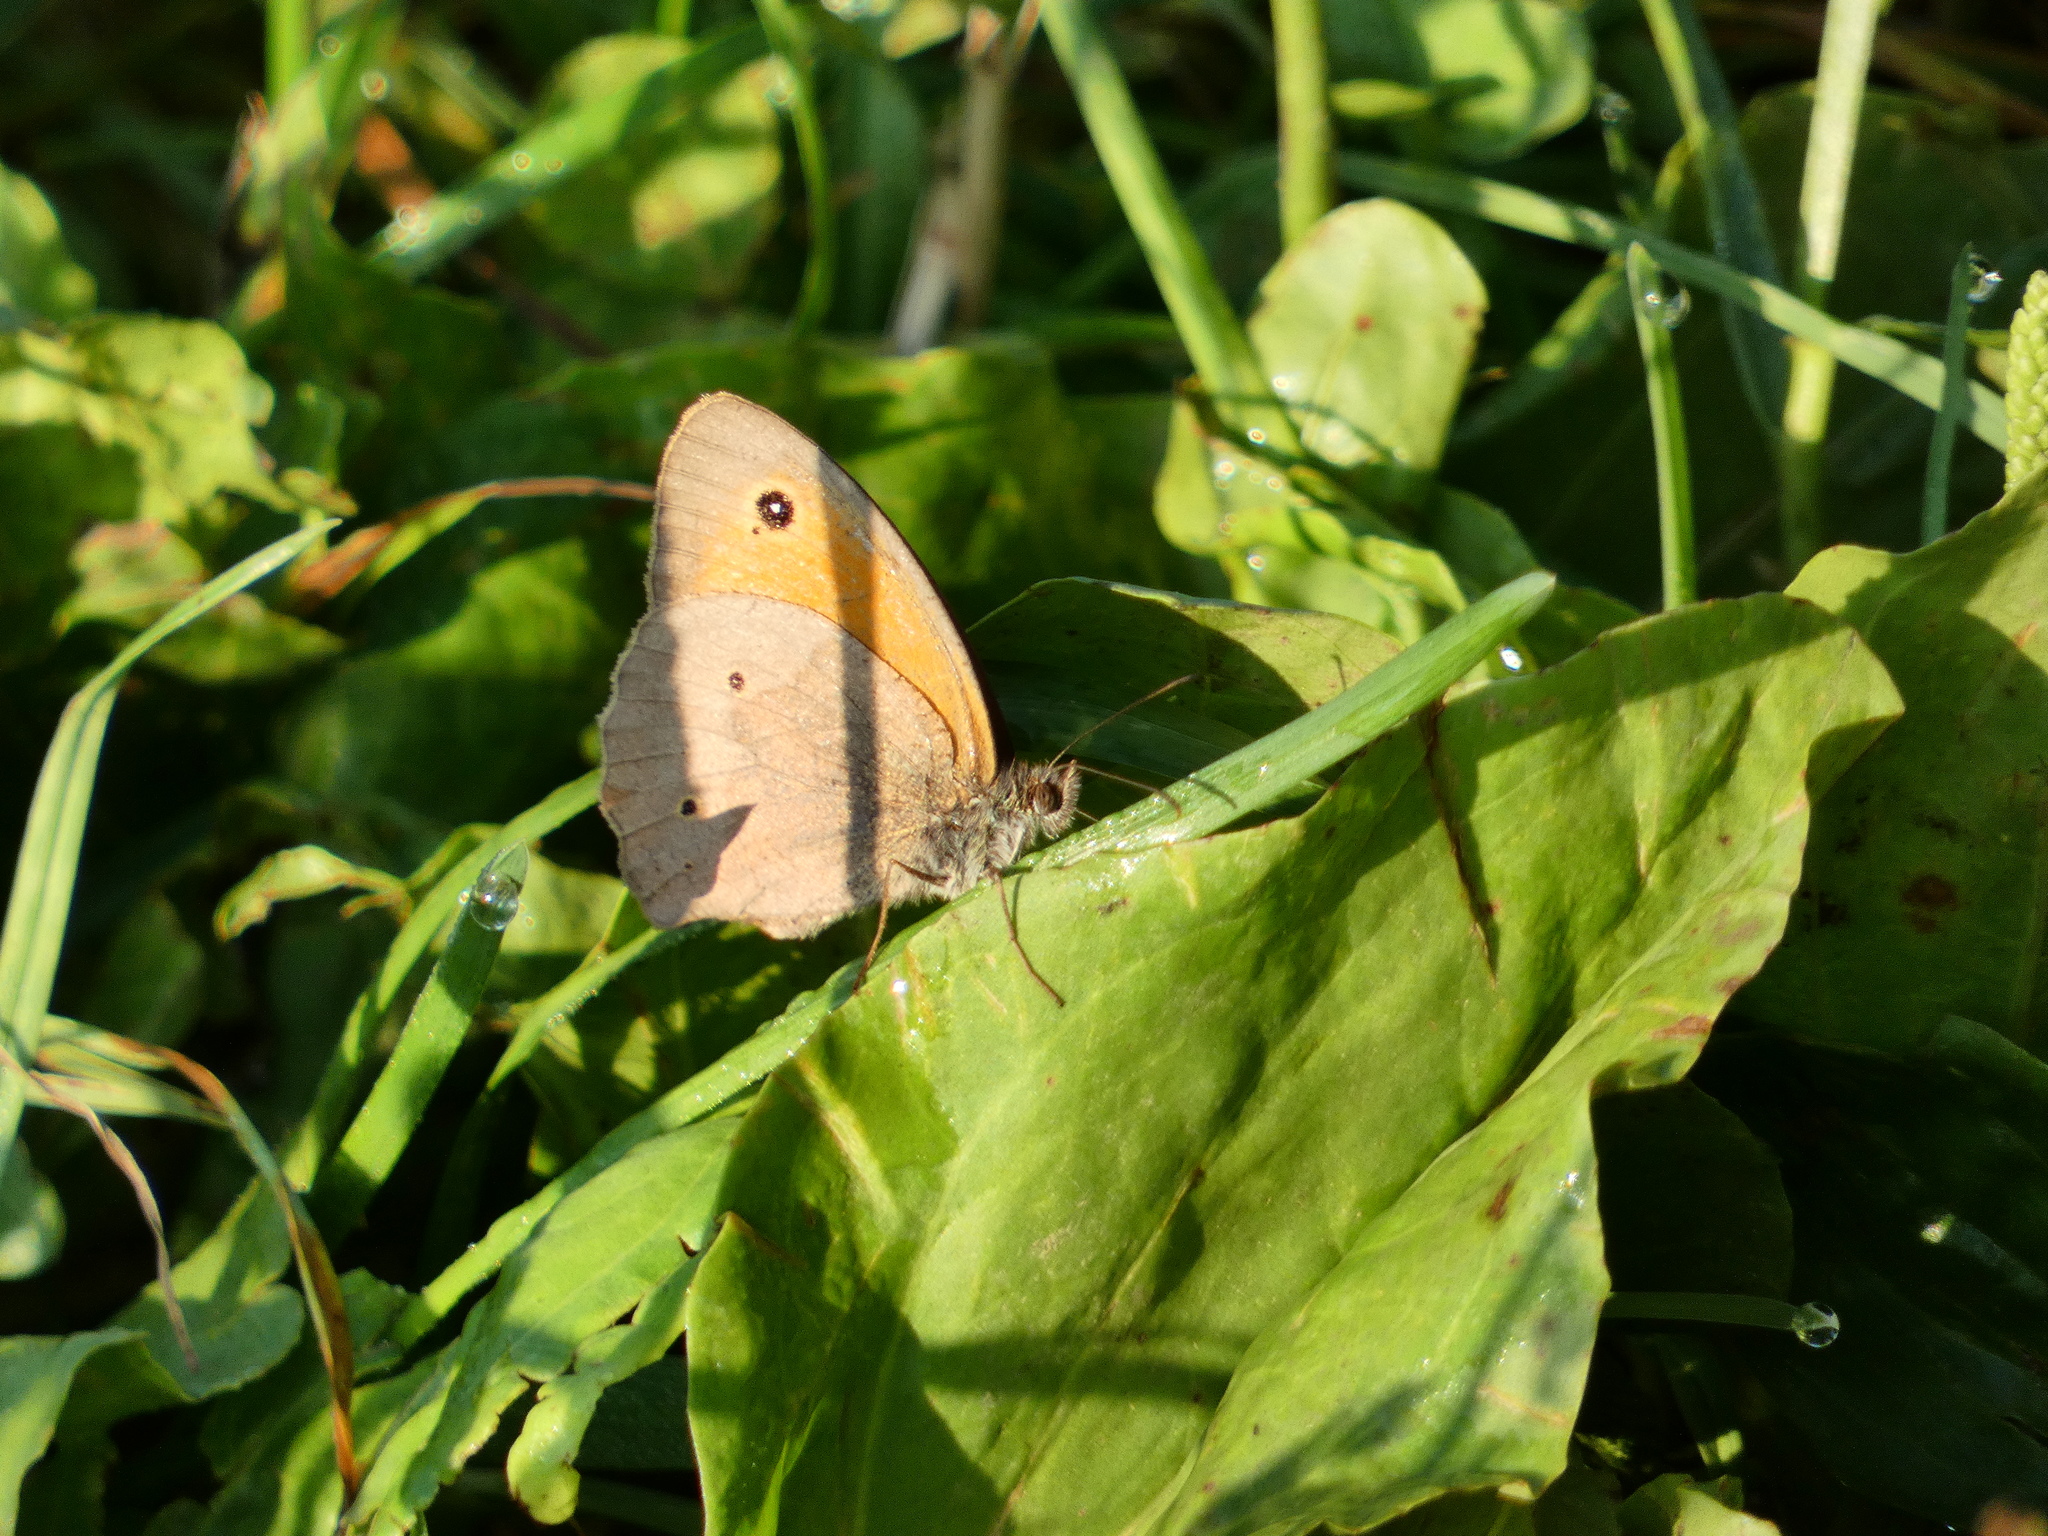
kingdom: Animalia
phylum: Arthropoda
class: Insecta
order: Lepidoptera
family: Nymphalidae
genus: Maniola
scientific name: Maniola jurtina
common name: Meadow brown
